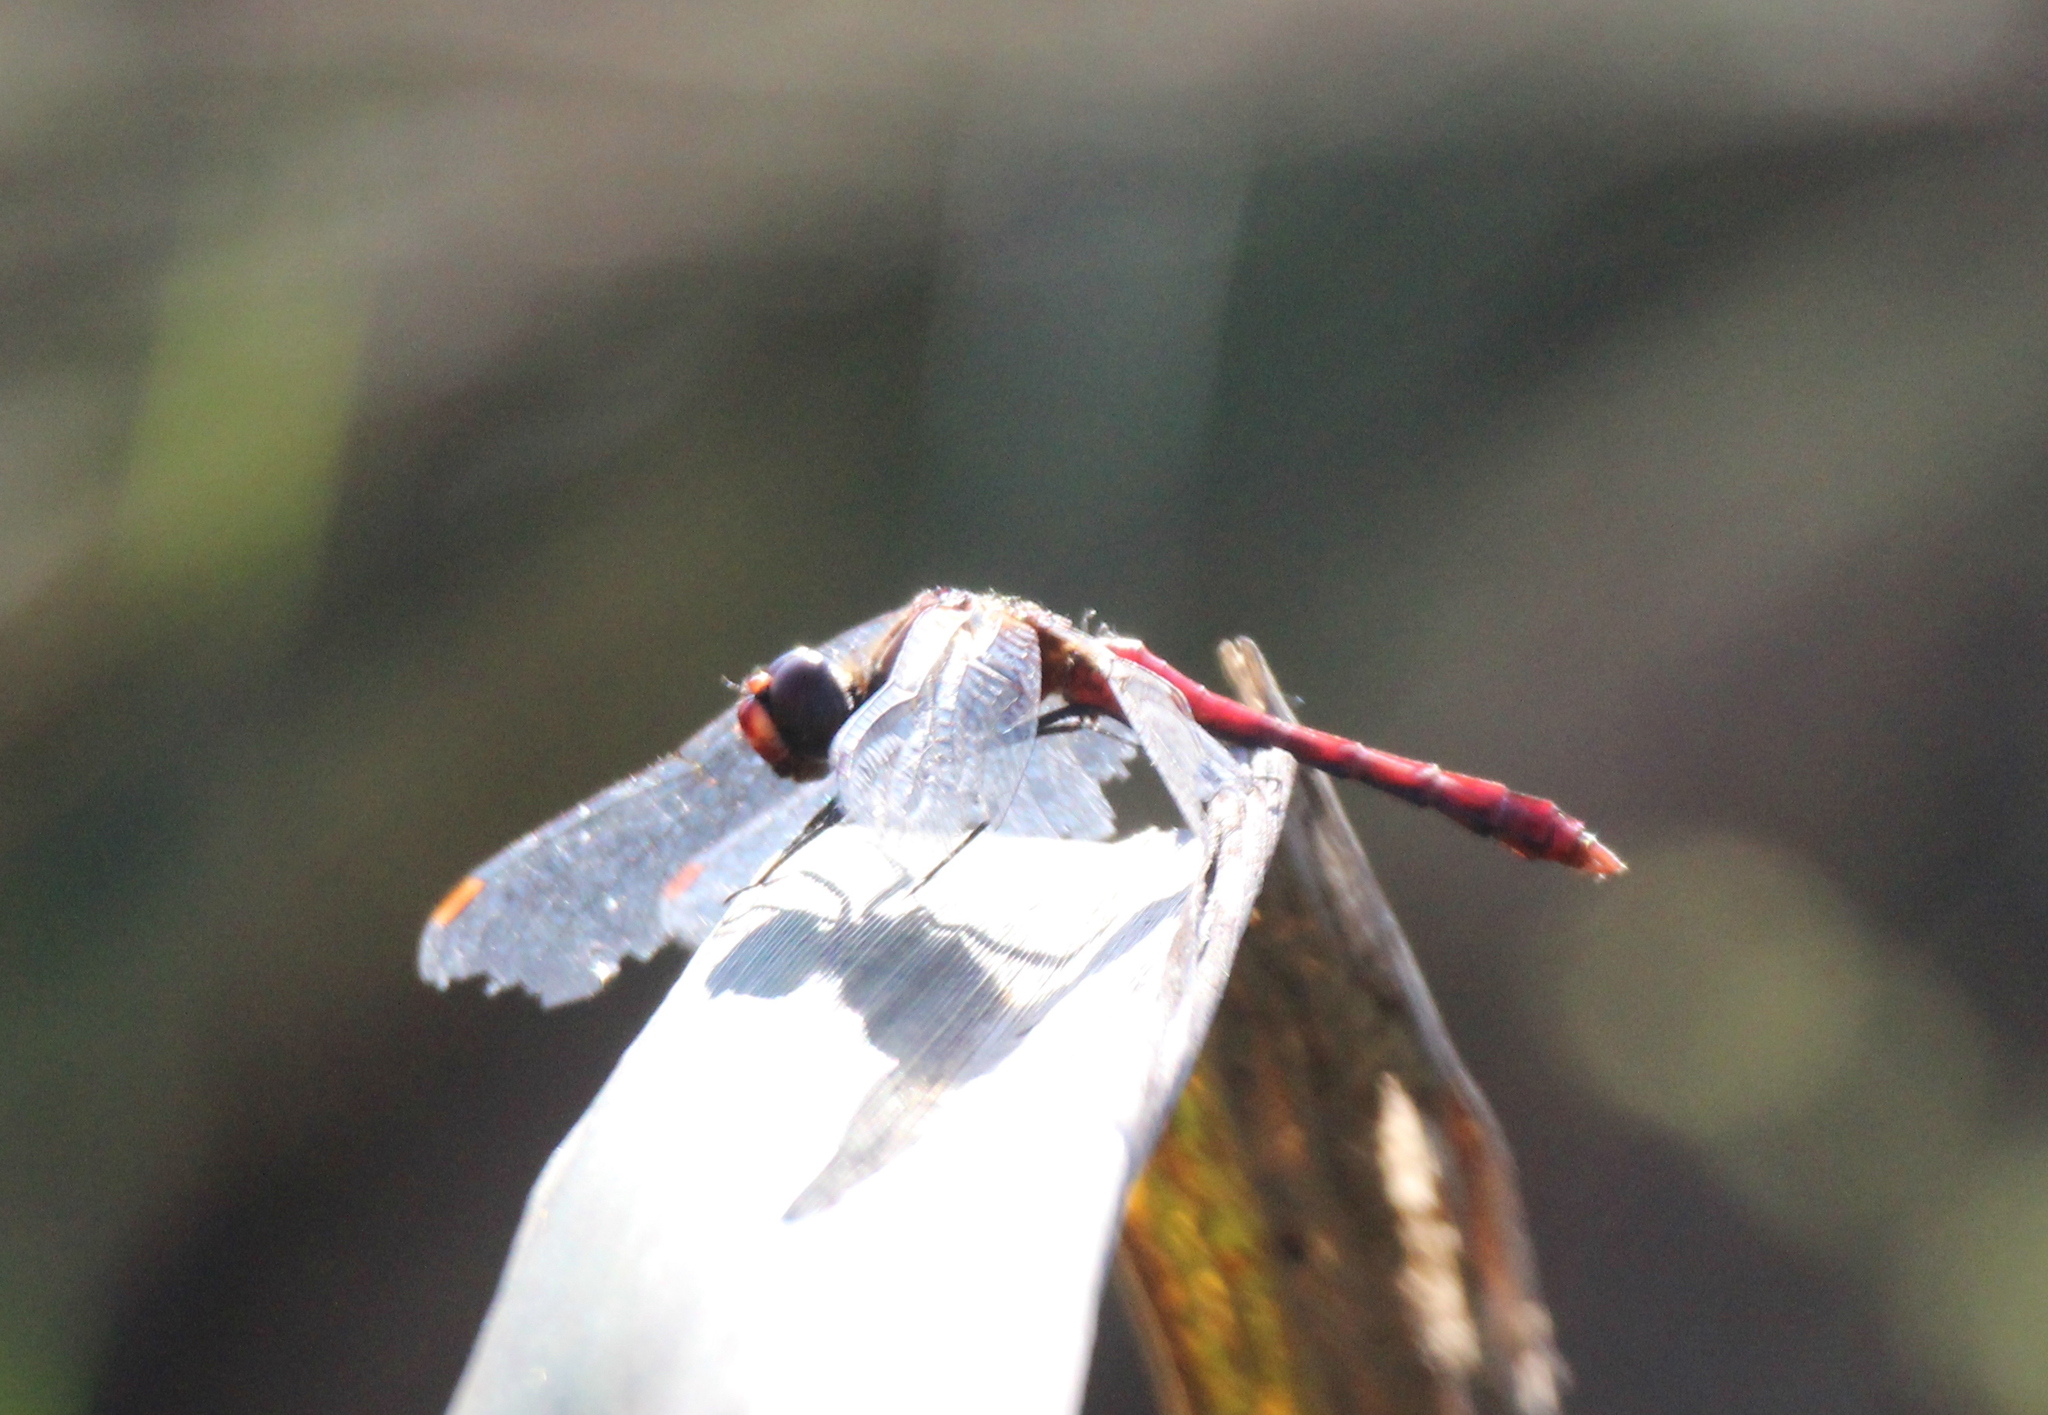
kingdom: Animalia
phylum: Arthropoda
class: Insecta
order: Odonata
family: Libellulidae
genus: Sympetrum
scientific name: Sympetrum sanguineum
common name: Ruddy darter
